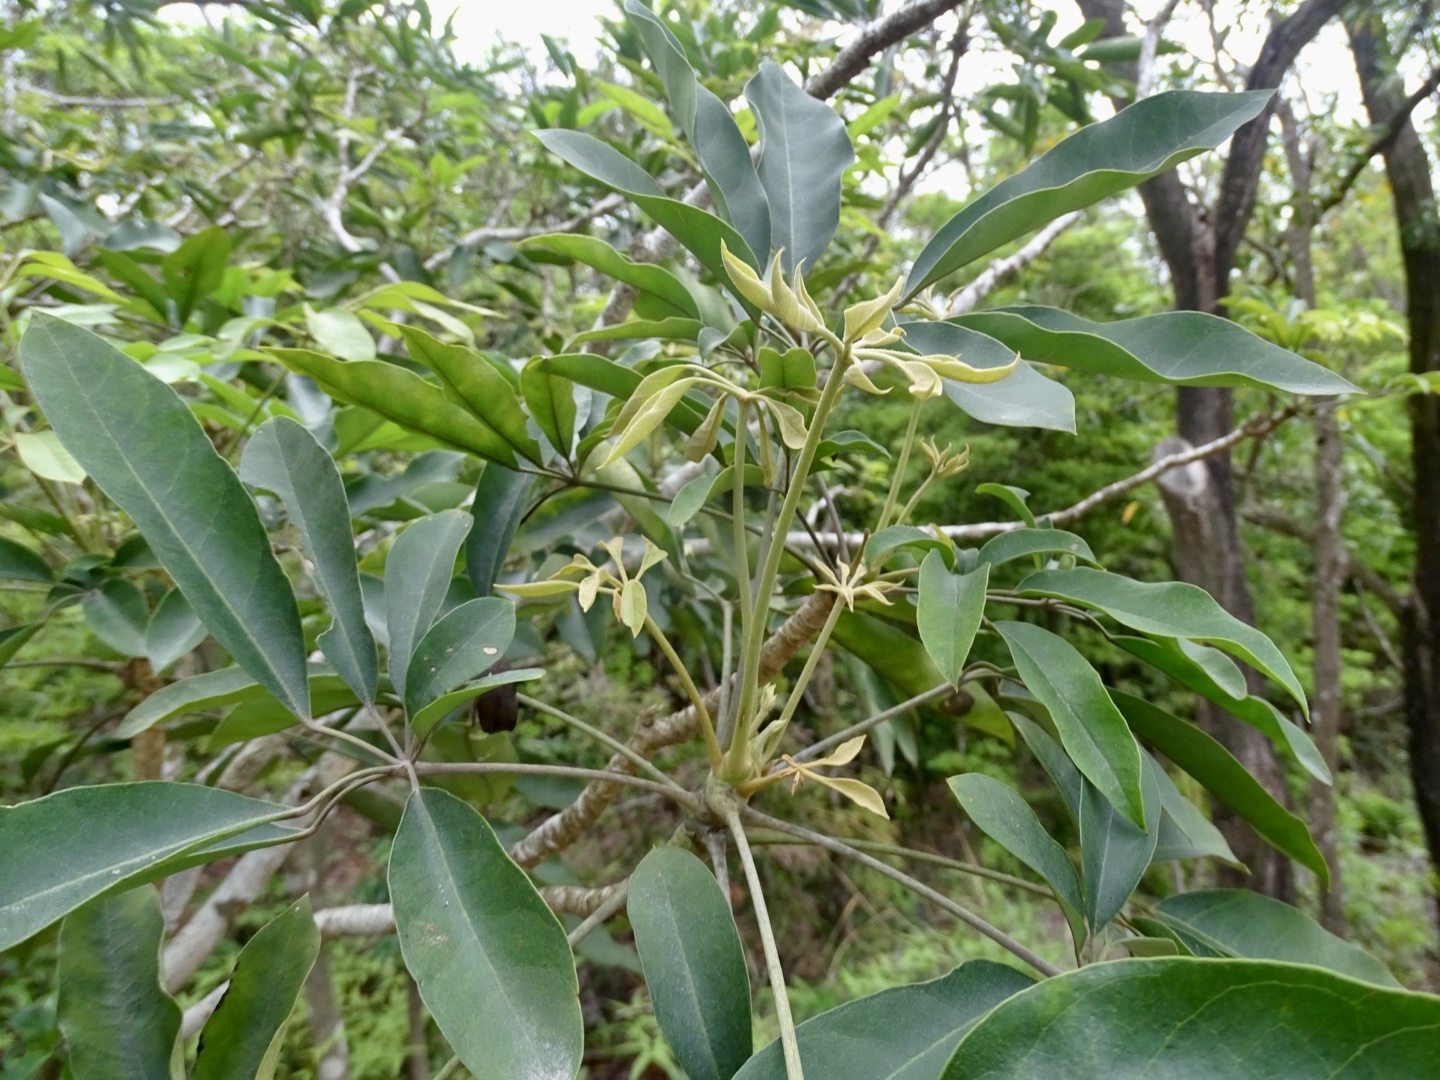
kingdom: Plantae
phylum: Tracheophyta
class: Magnoliopsida
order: Apiales
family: Araliaceae
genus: Heptapleurum
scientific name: Heptapleurum heptaphyllum
